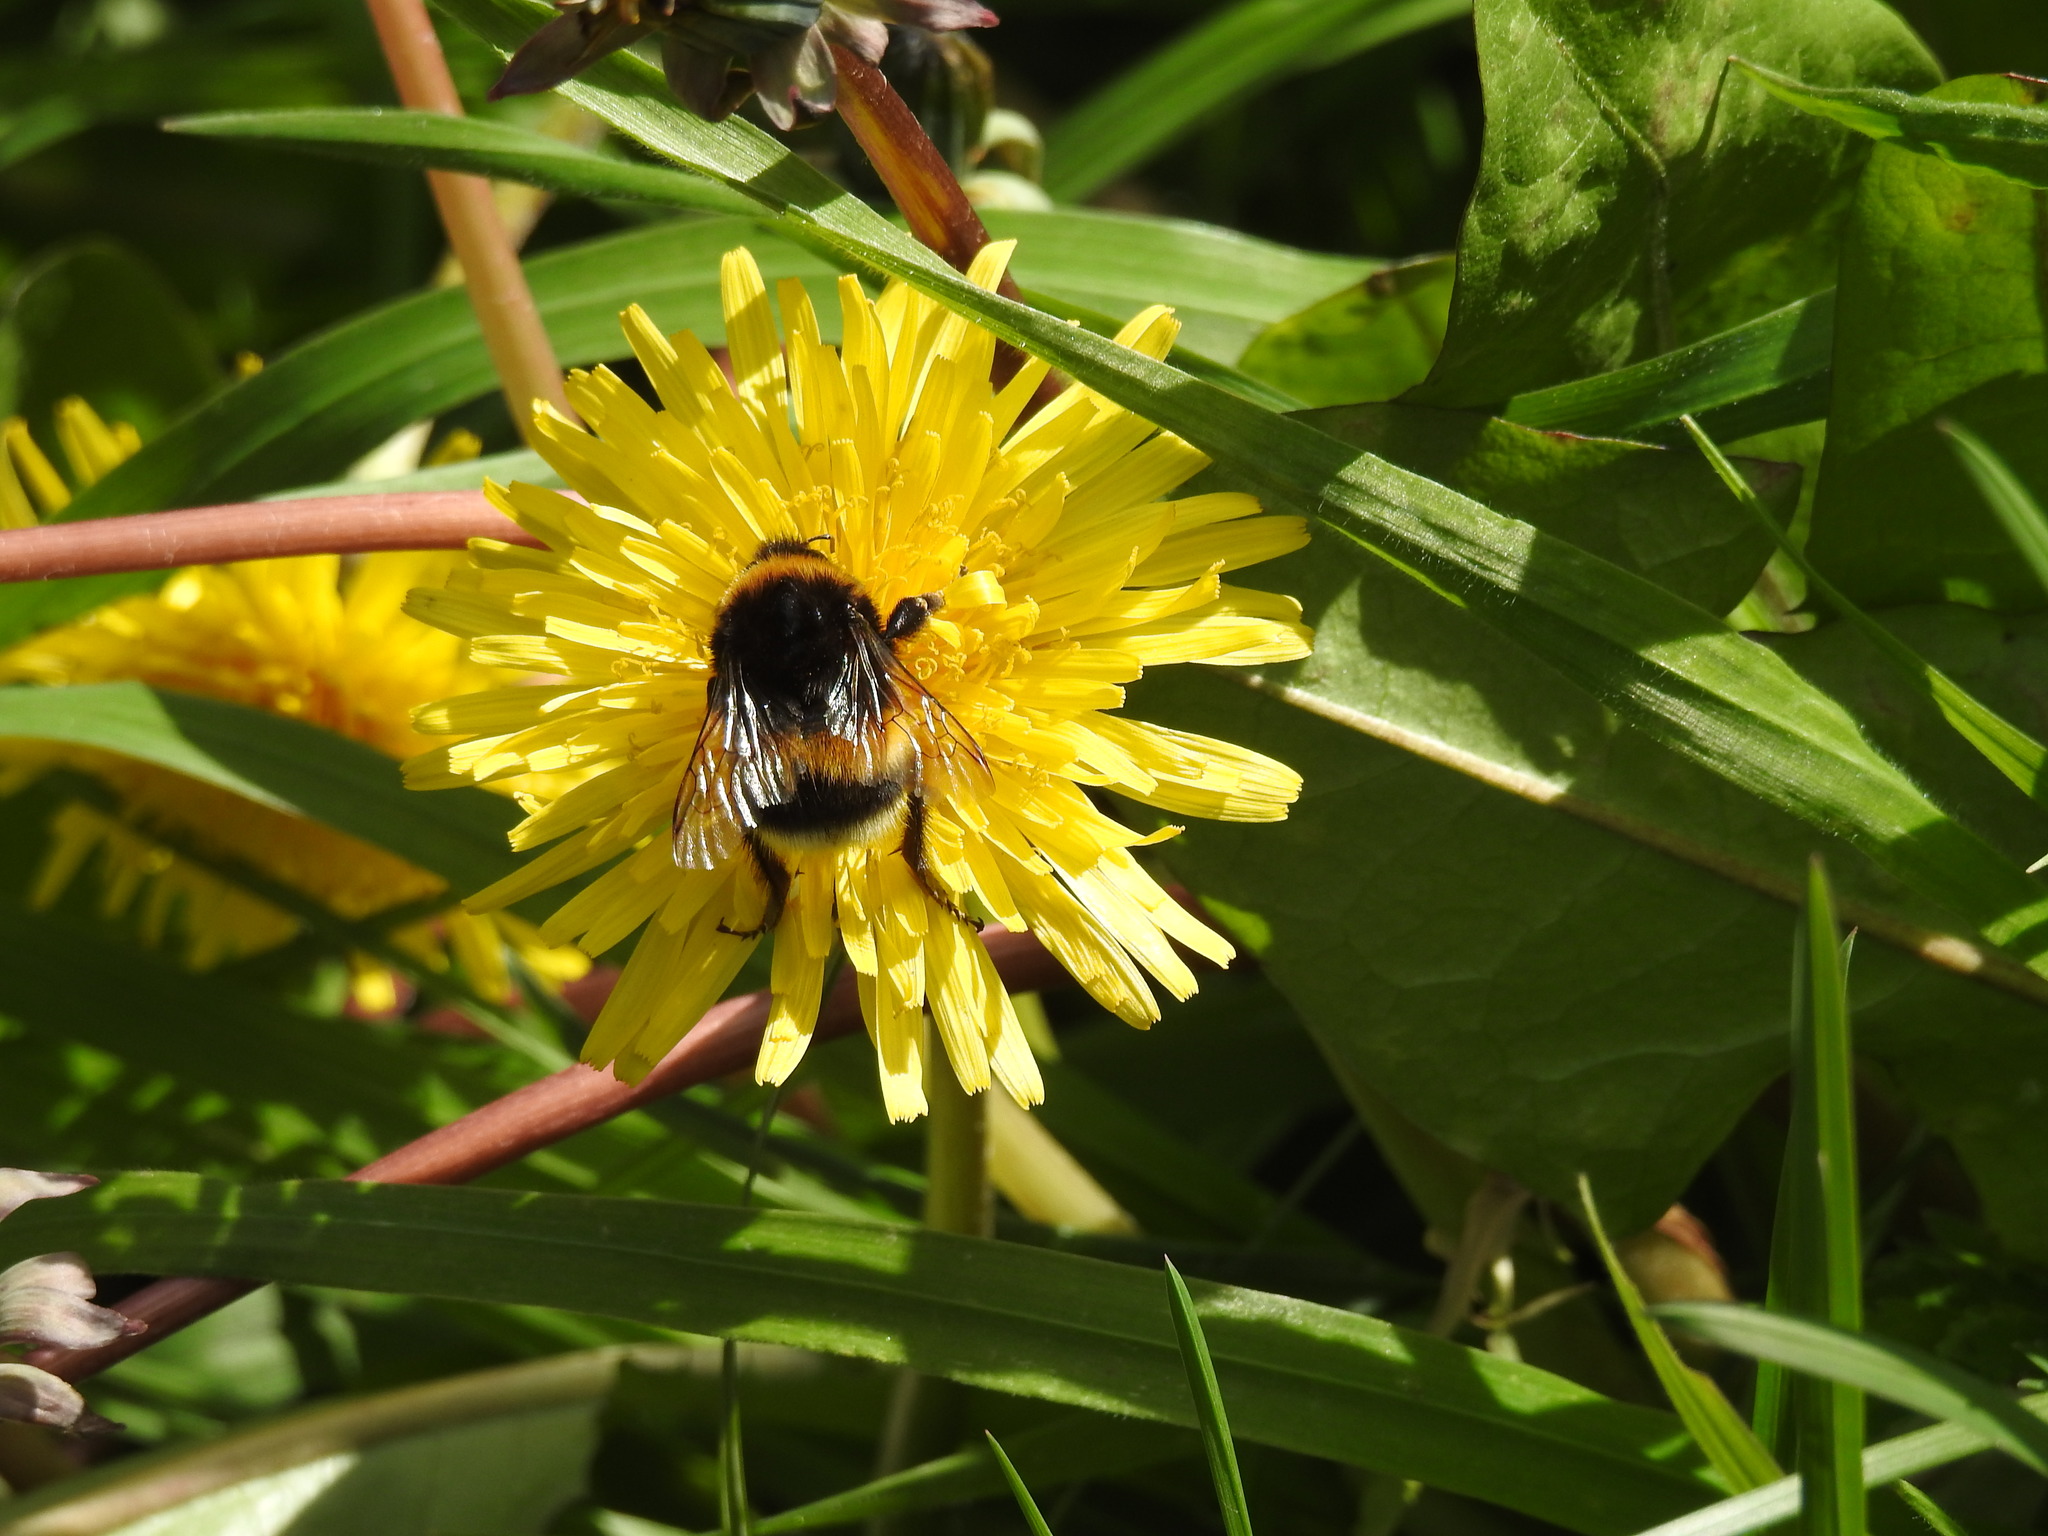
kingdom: Animalia
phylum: Arthropoda
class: Insecta
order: Hymenoptera
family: Apidae
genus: Bombus
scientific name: Bombus terrestris
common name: Buff-tailed bumblebee
